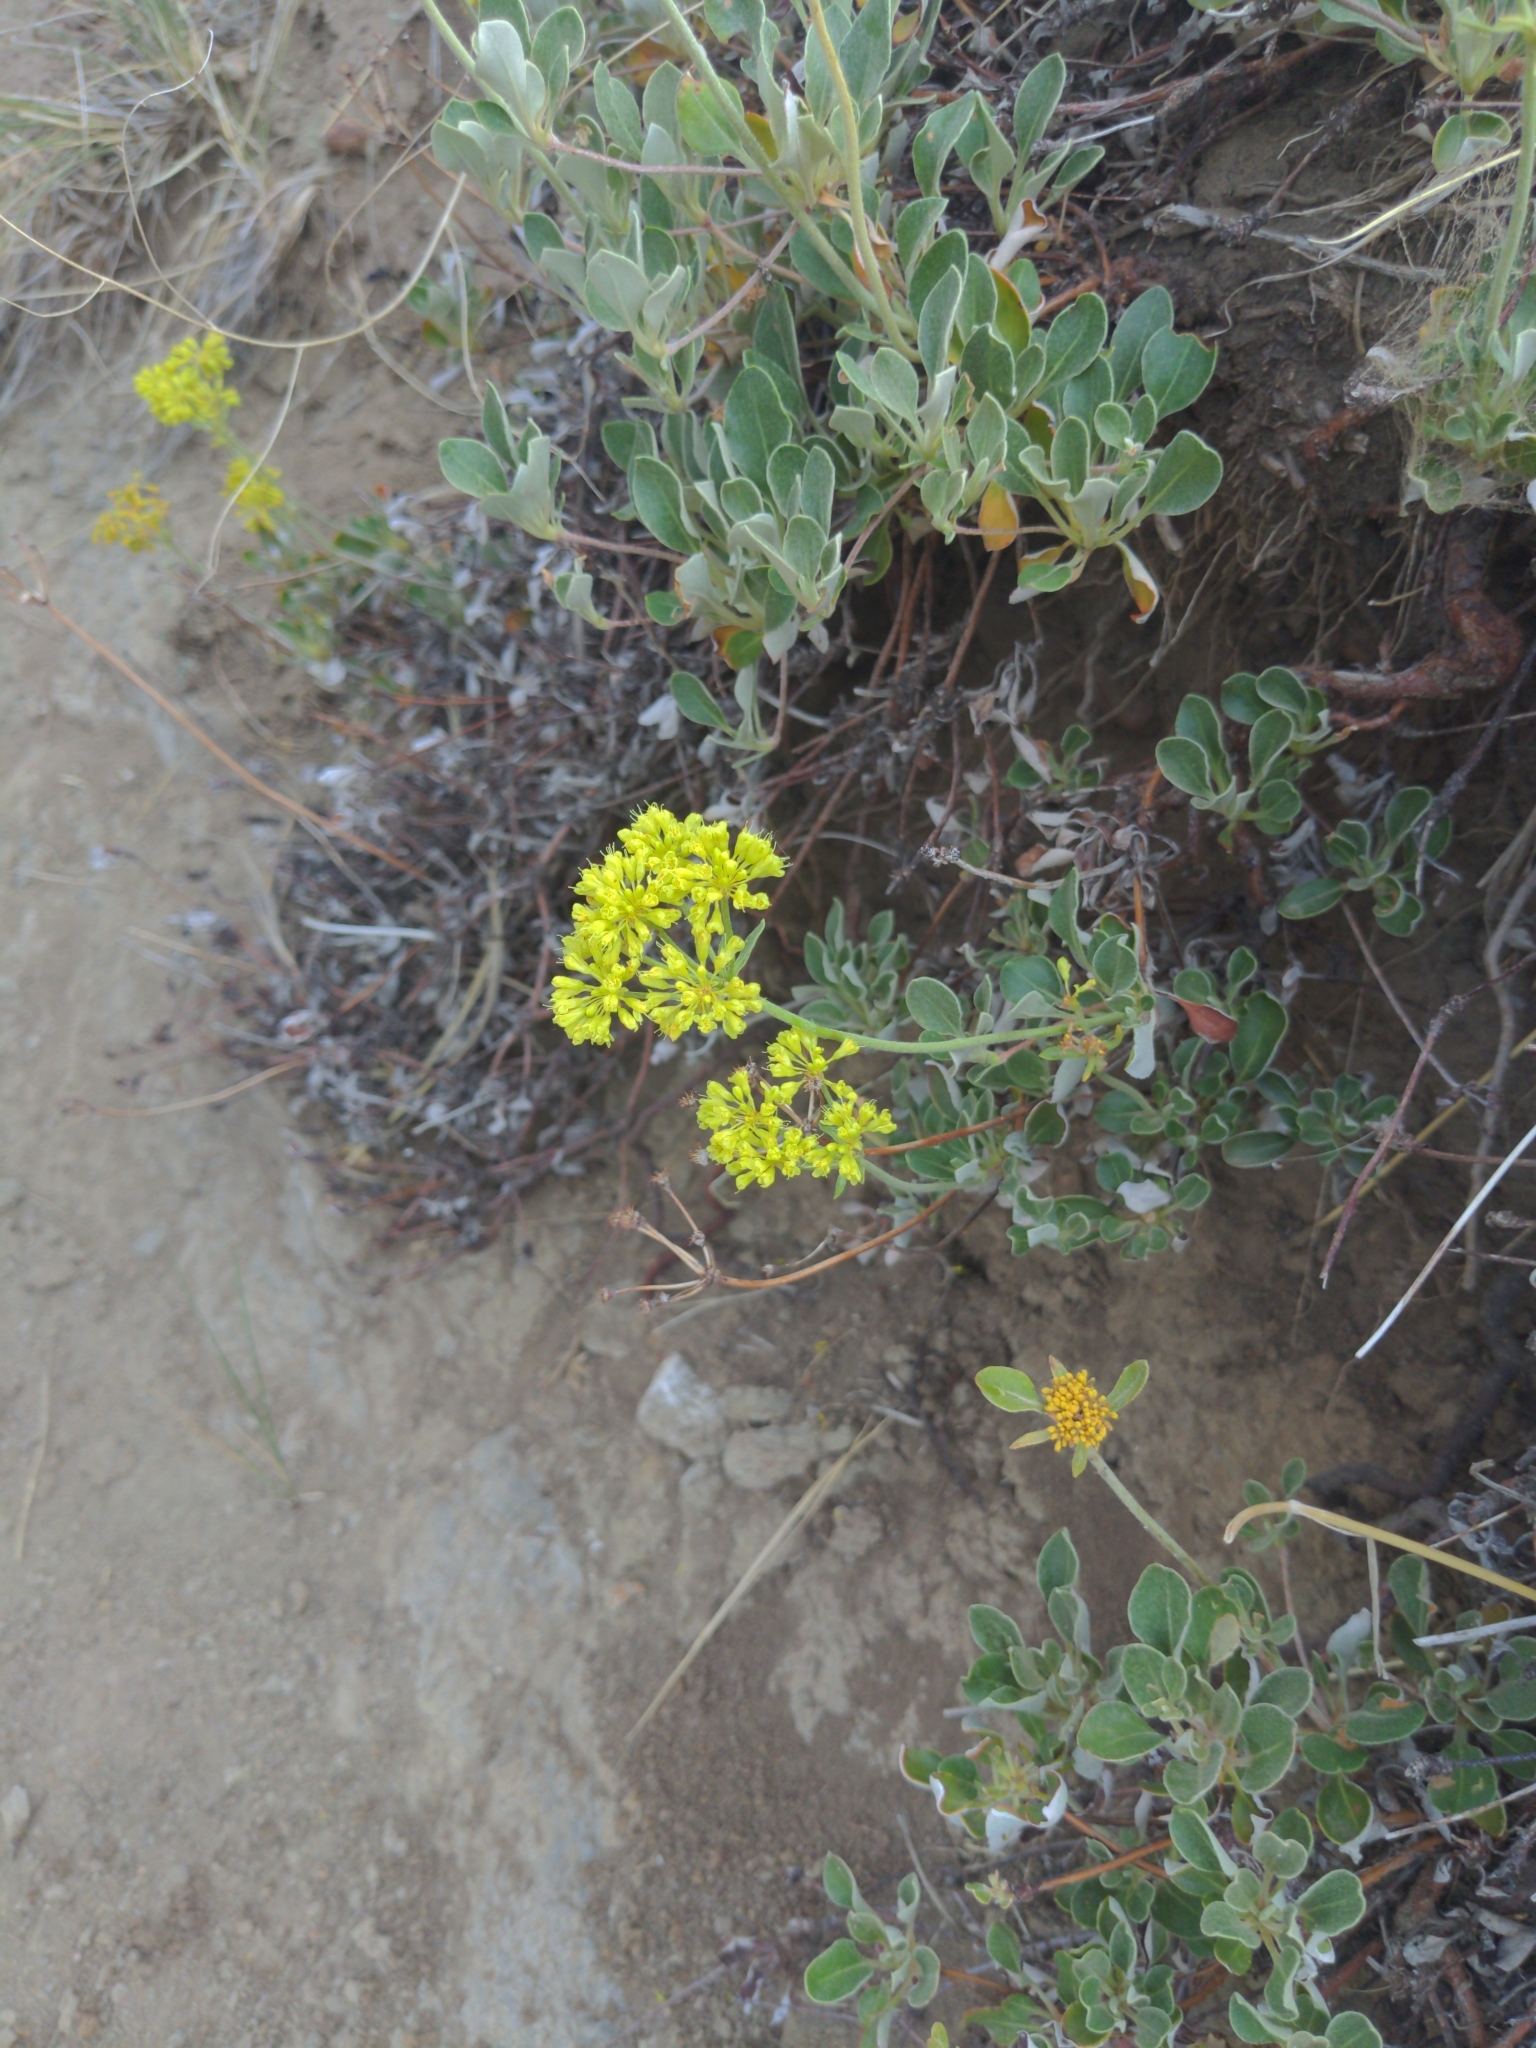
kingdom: Plantae
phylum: Tracheophyta
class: Magnoliopsida
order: Caryophyllales
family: Polygonaceae
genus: Eriogonum
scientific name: Eriogonum umbellatum
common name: Sulfur-buckwheat
